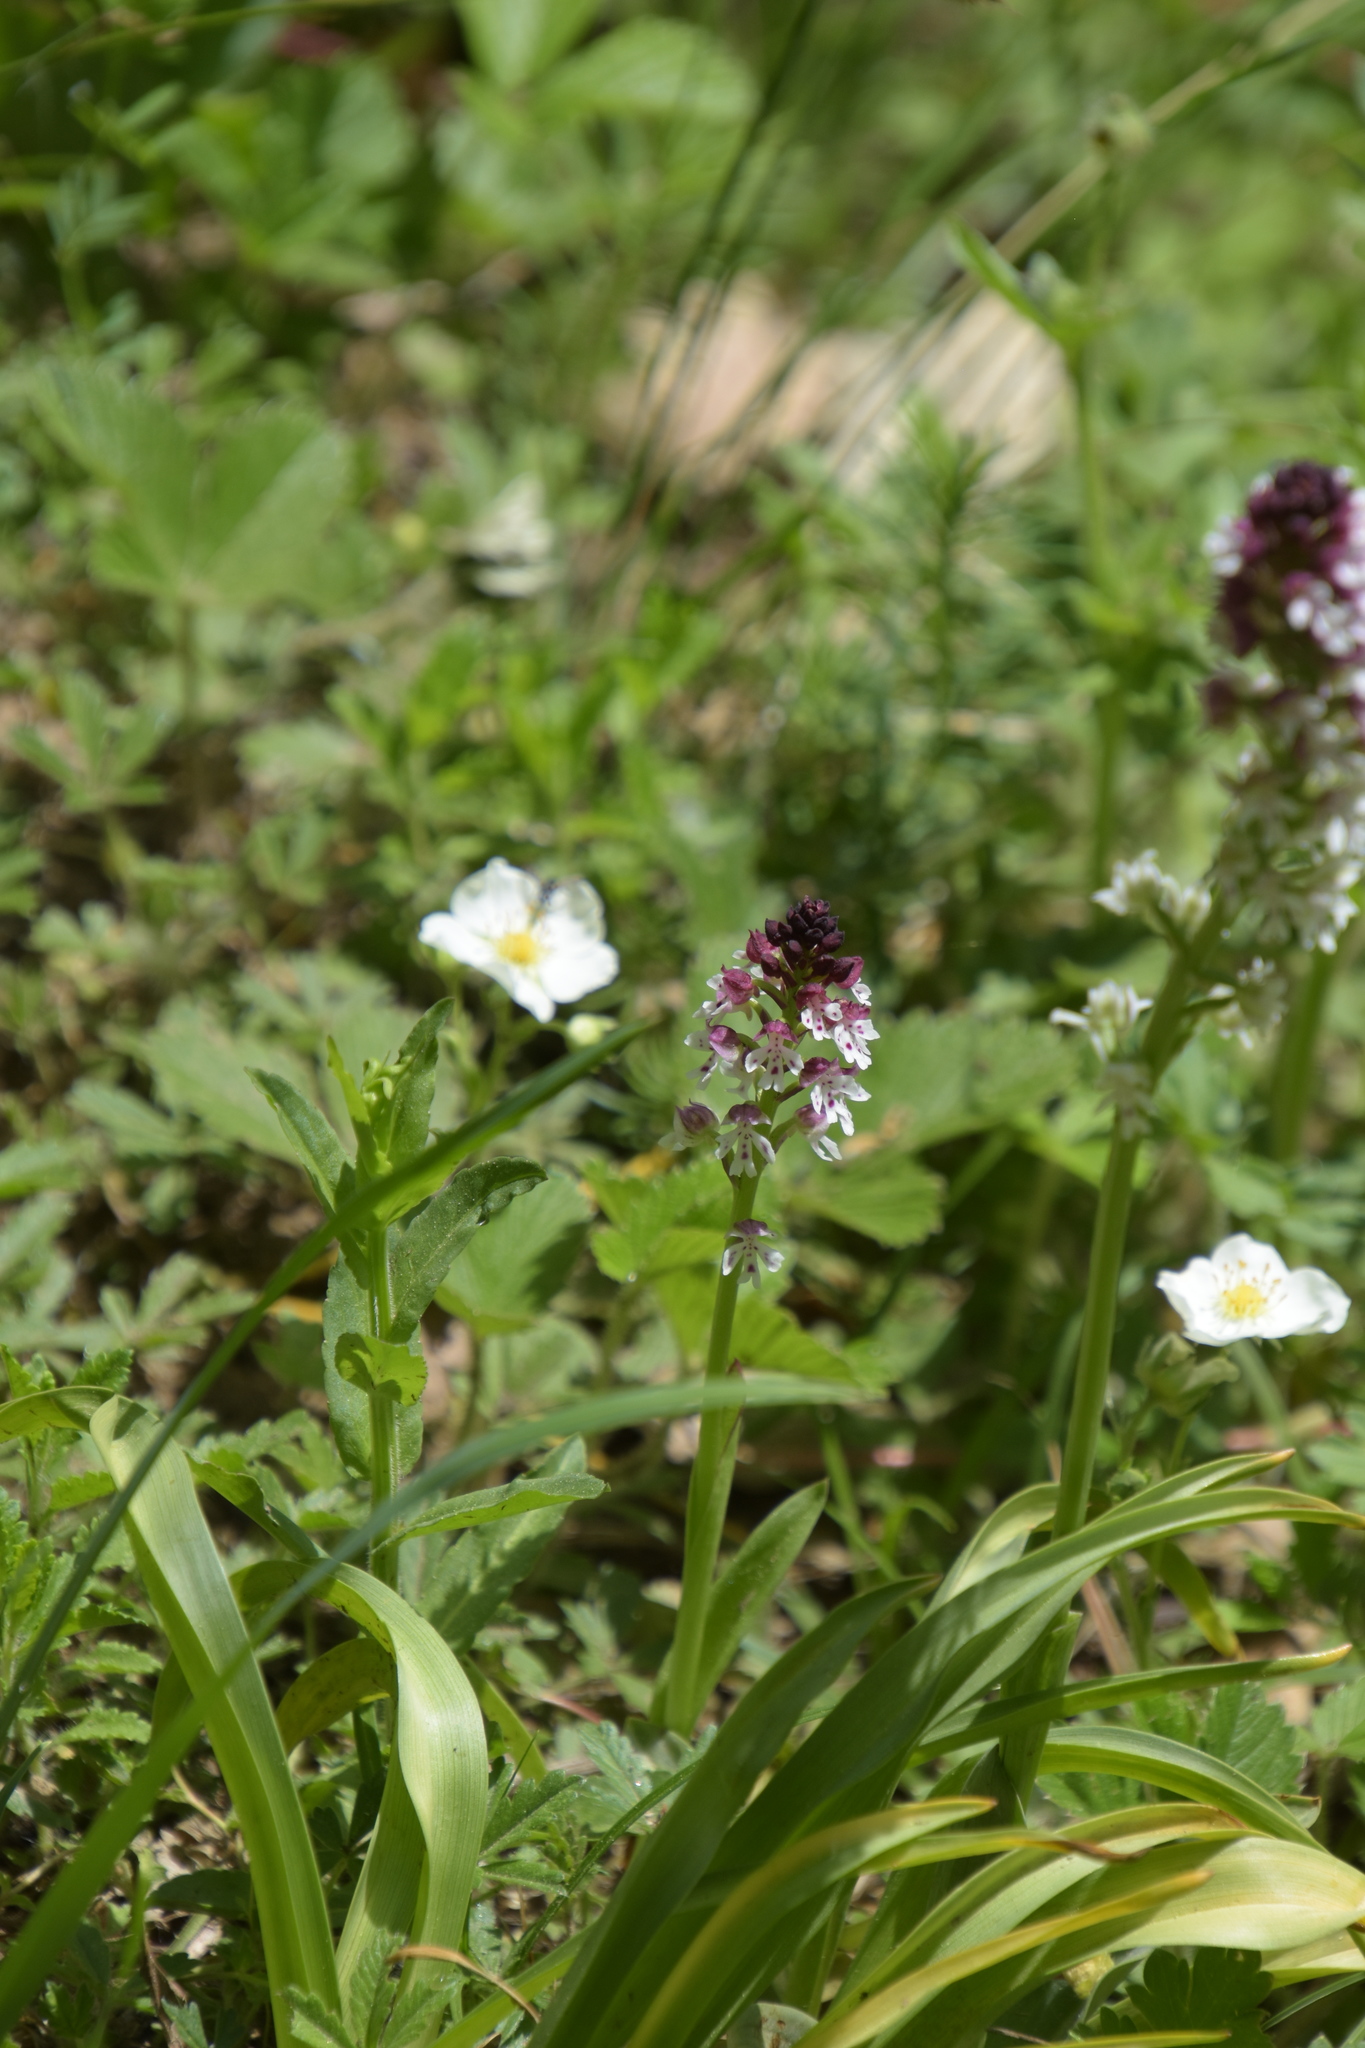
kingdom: Plantae
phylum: Tracheophyta
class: Liliopsida
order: Asparagales
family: Orchidaceae
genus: Neotinea
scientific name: Neotinea ustulata
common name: Burnt orchid
